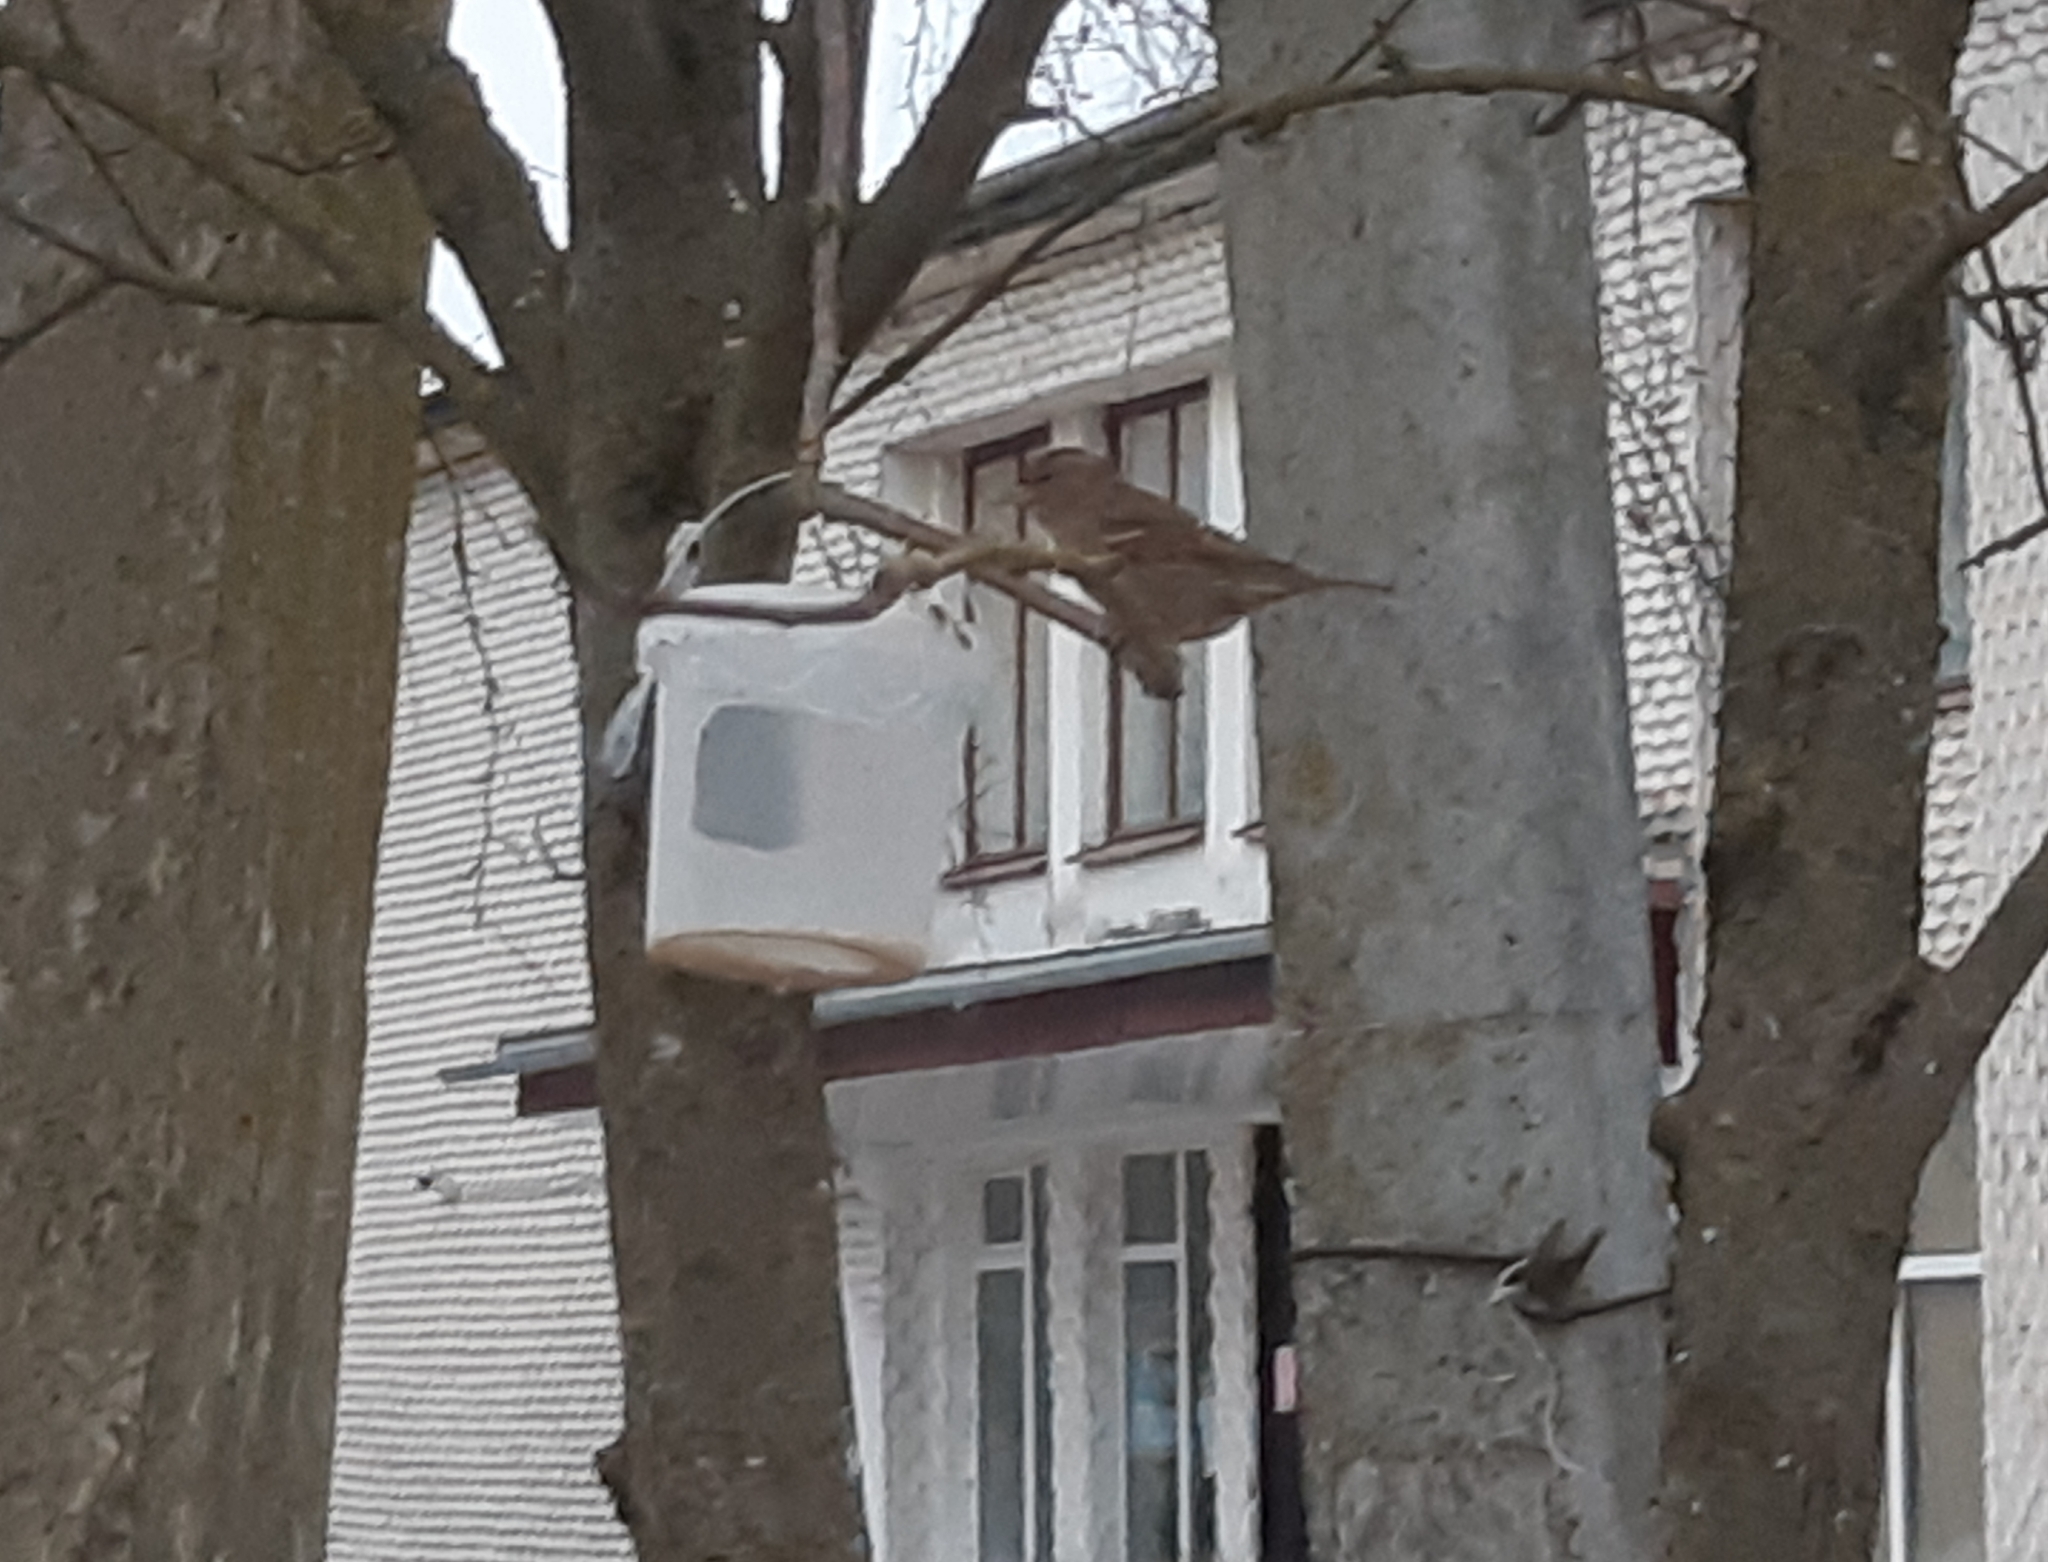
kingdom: Animalia
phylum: Chordata
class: Aves
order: Passeriformes
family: Passeridae
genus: Passer
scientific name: Passer domesticus
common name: House sparrow
